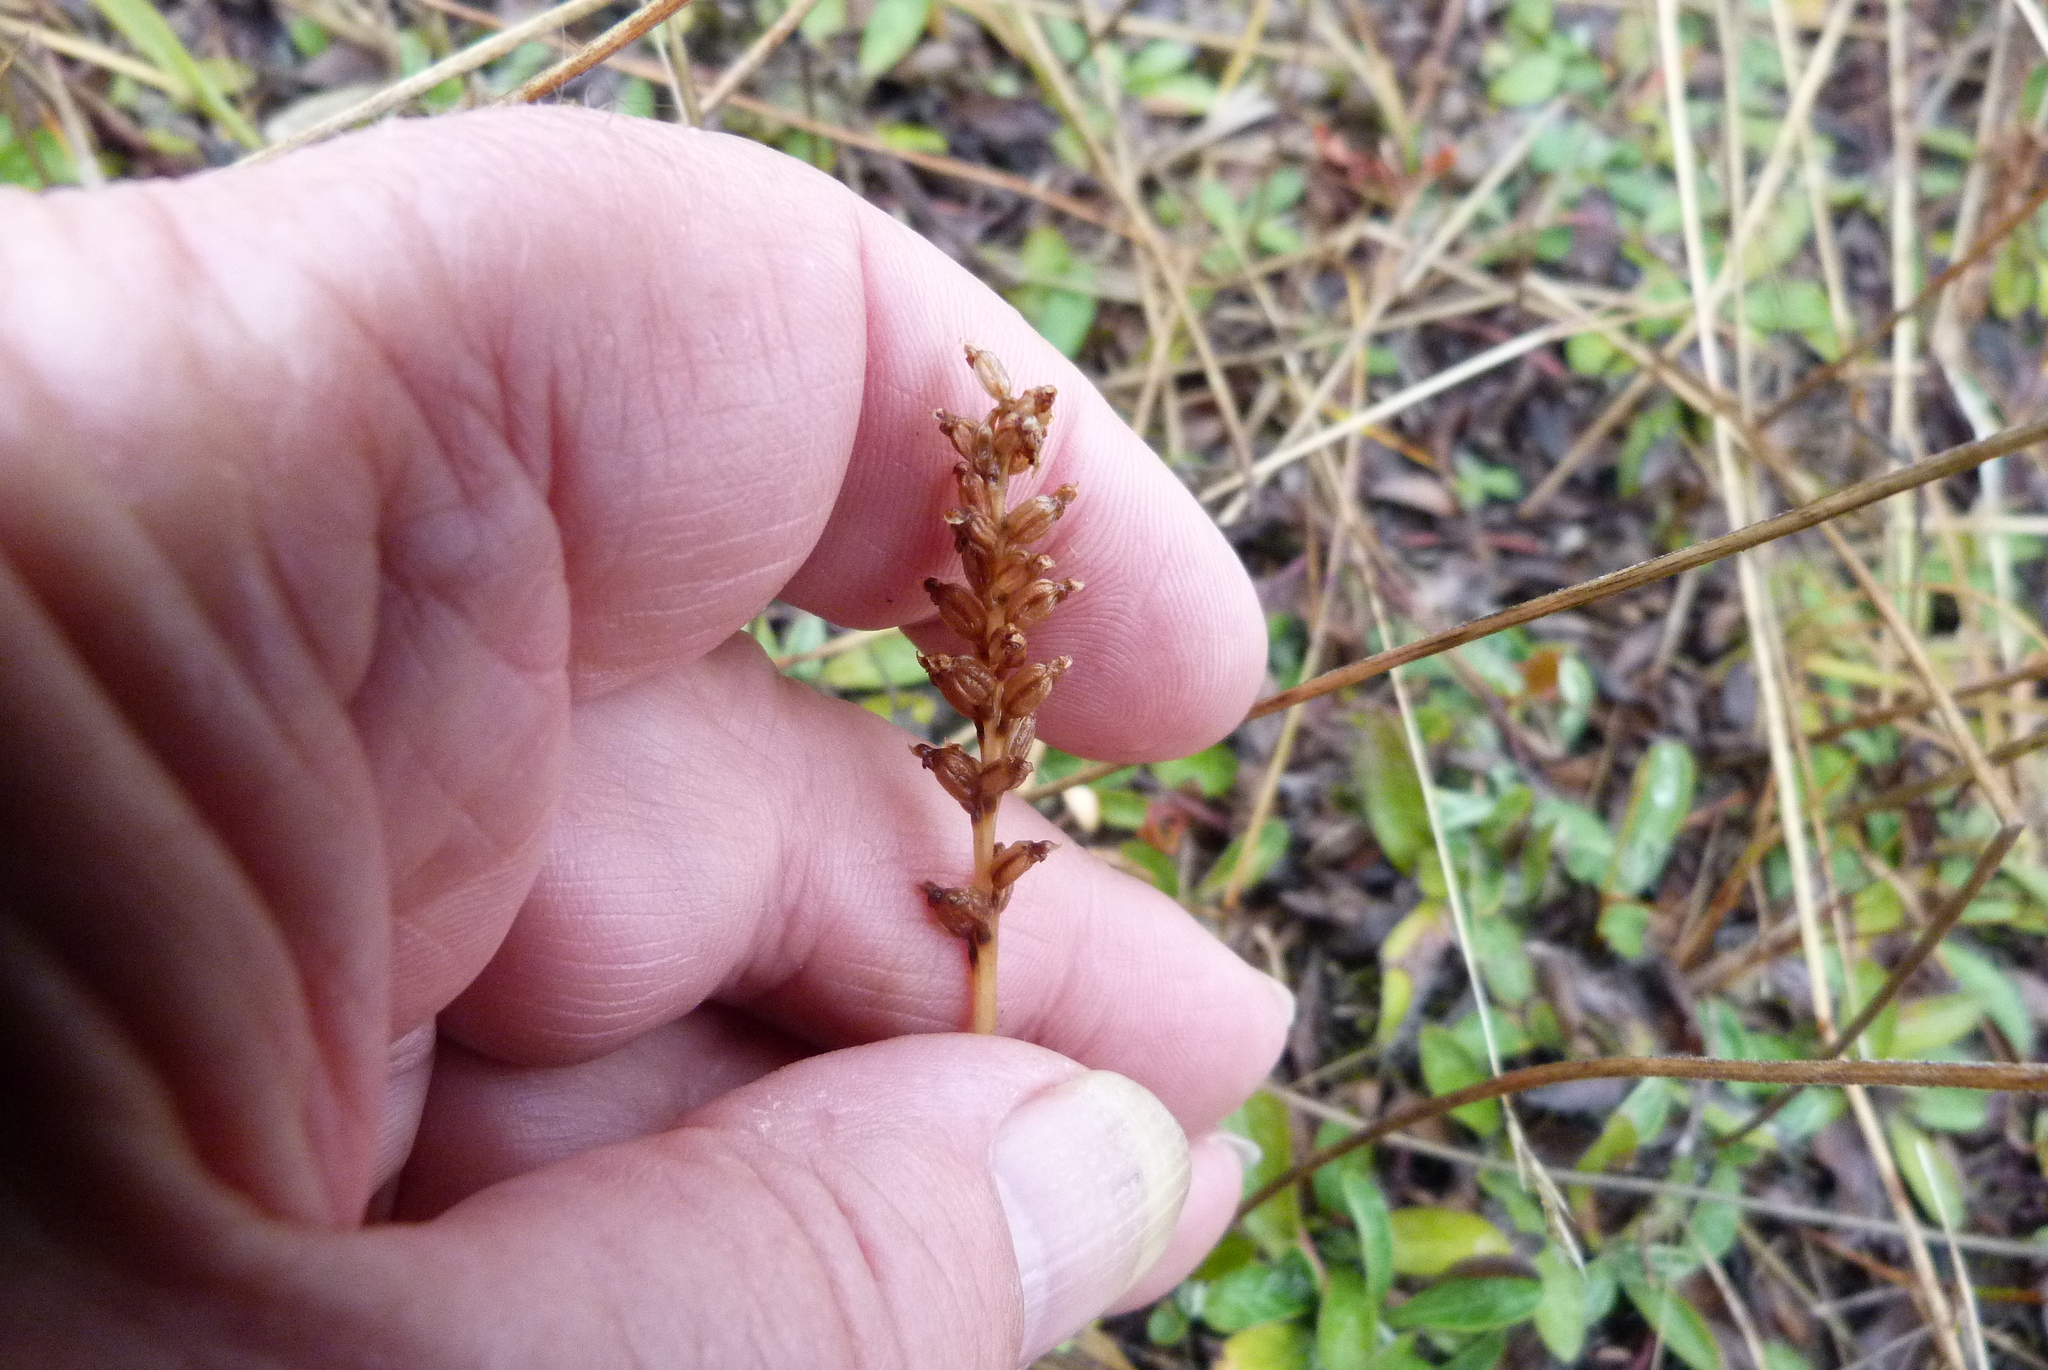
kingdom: Plantae
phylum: Tracheophyta
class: Liliopsida
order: Asparagales
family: Orchidaceae
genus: Microtis
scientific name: Microtis unifolia
